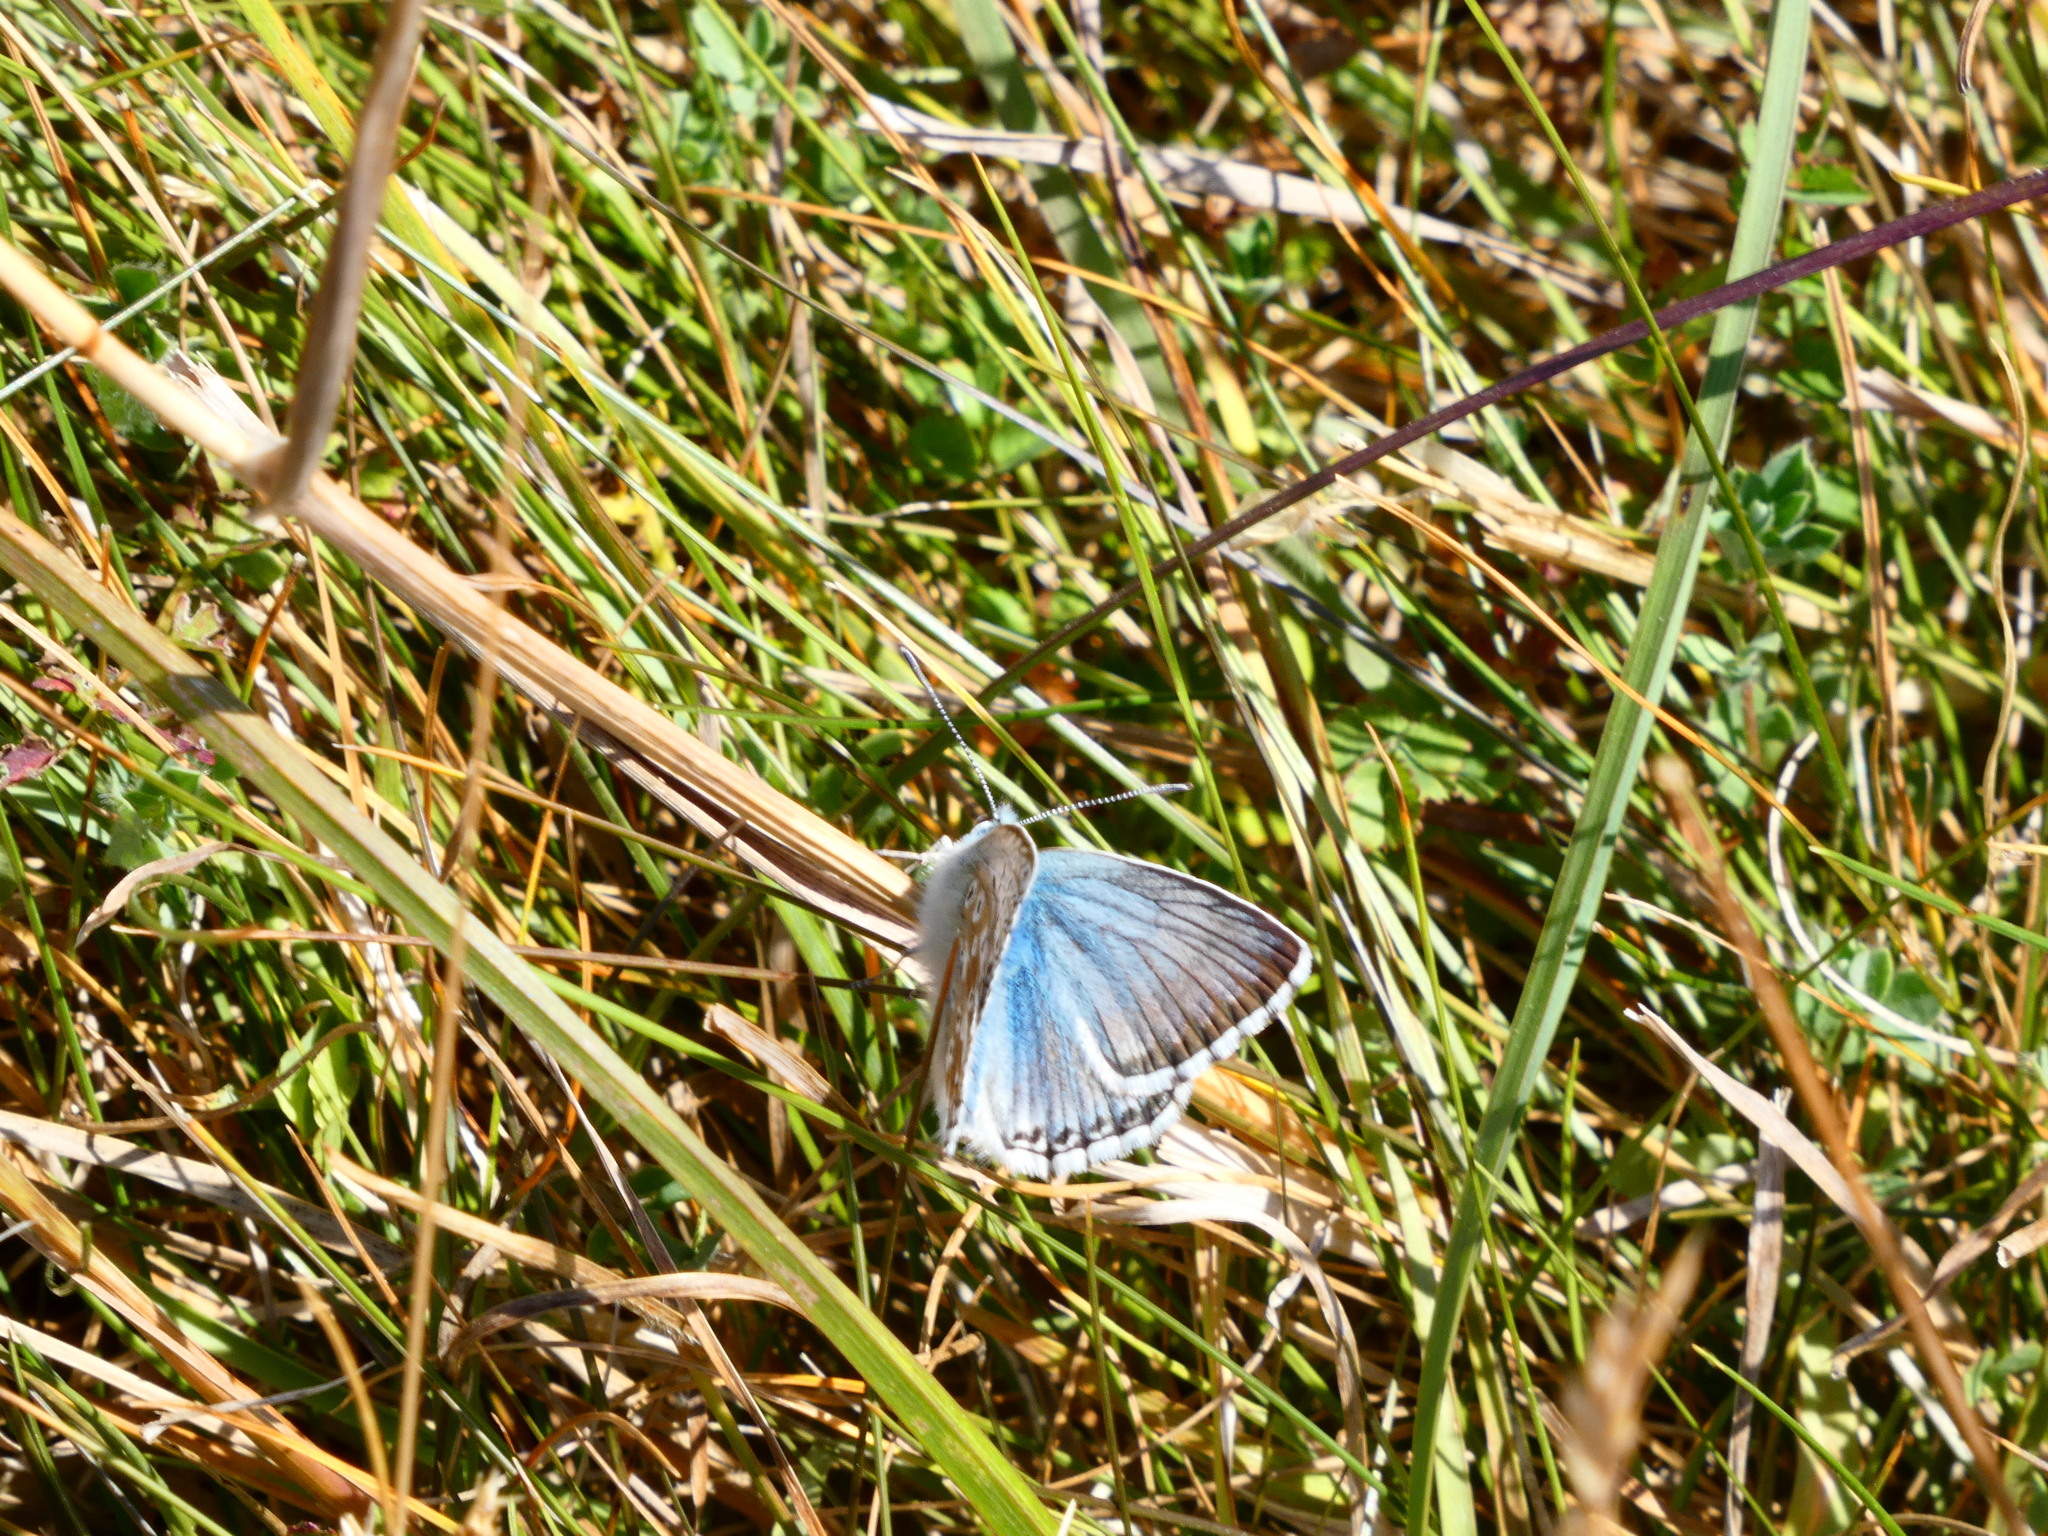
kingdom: Animalia
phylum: Arthropoda
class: Insecta
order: Lepidoptera
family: Lycaenidae
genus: Lysandra
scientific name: Lysandra coridon
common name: Chalkhill blue
